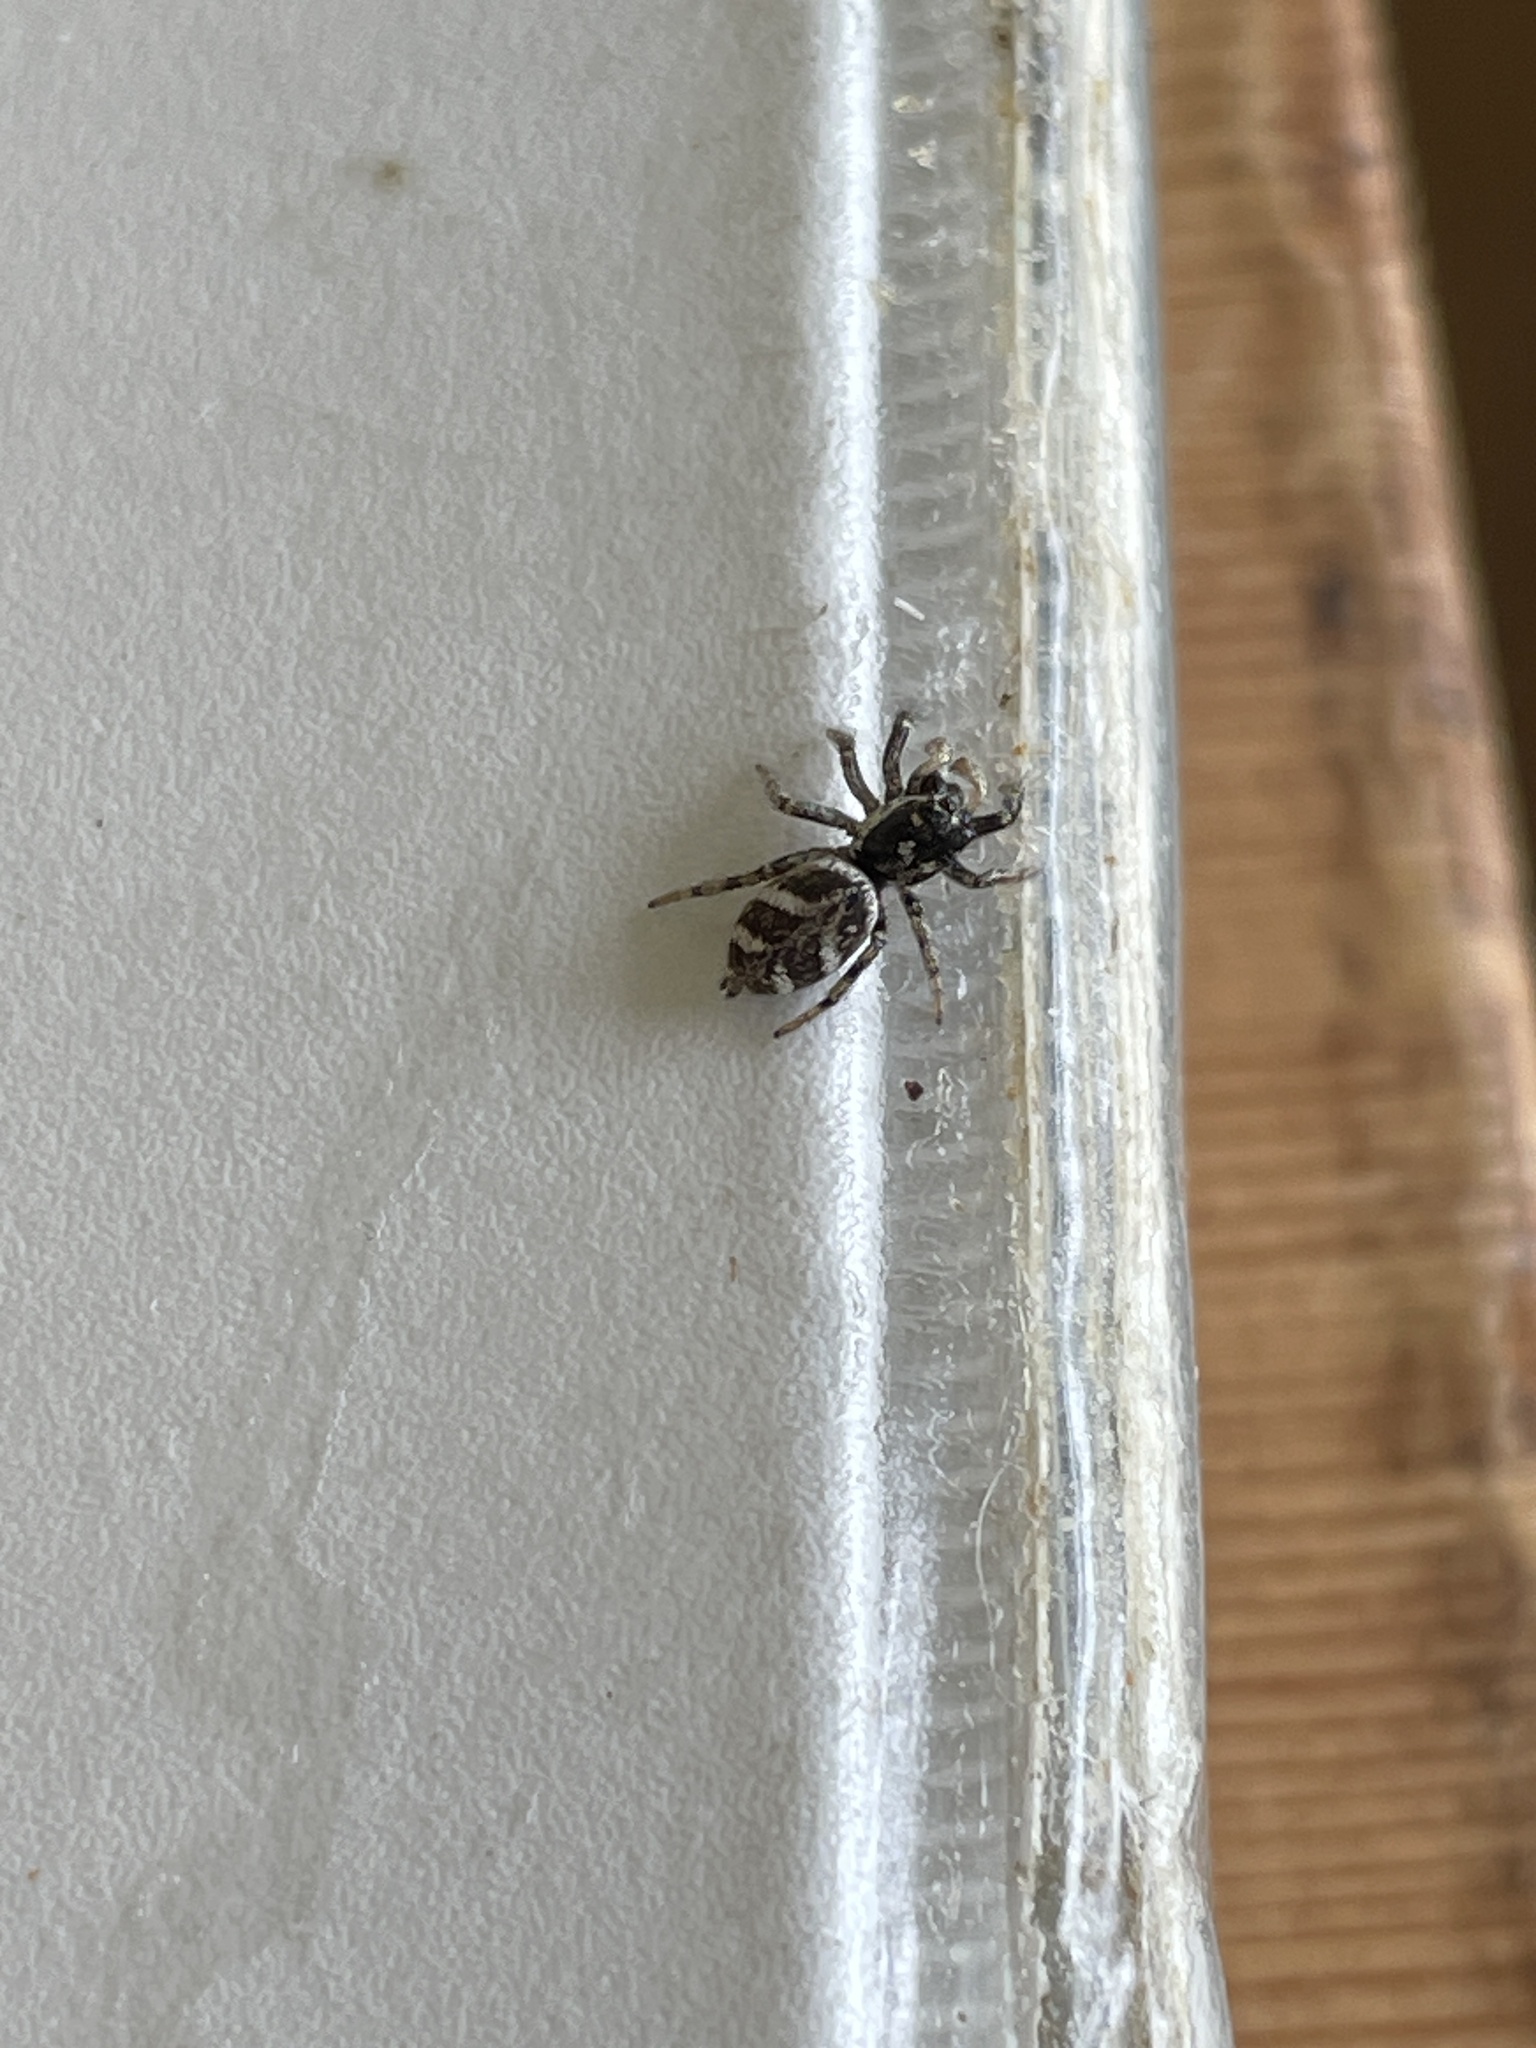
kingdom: Animalia
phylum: Arthropoda
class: Arachnida
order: Araneae
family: Salticidae
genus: Salticus
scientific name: Salticus scenicus
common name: Zebra jumper
